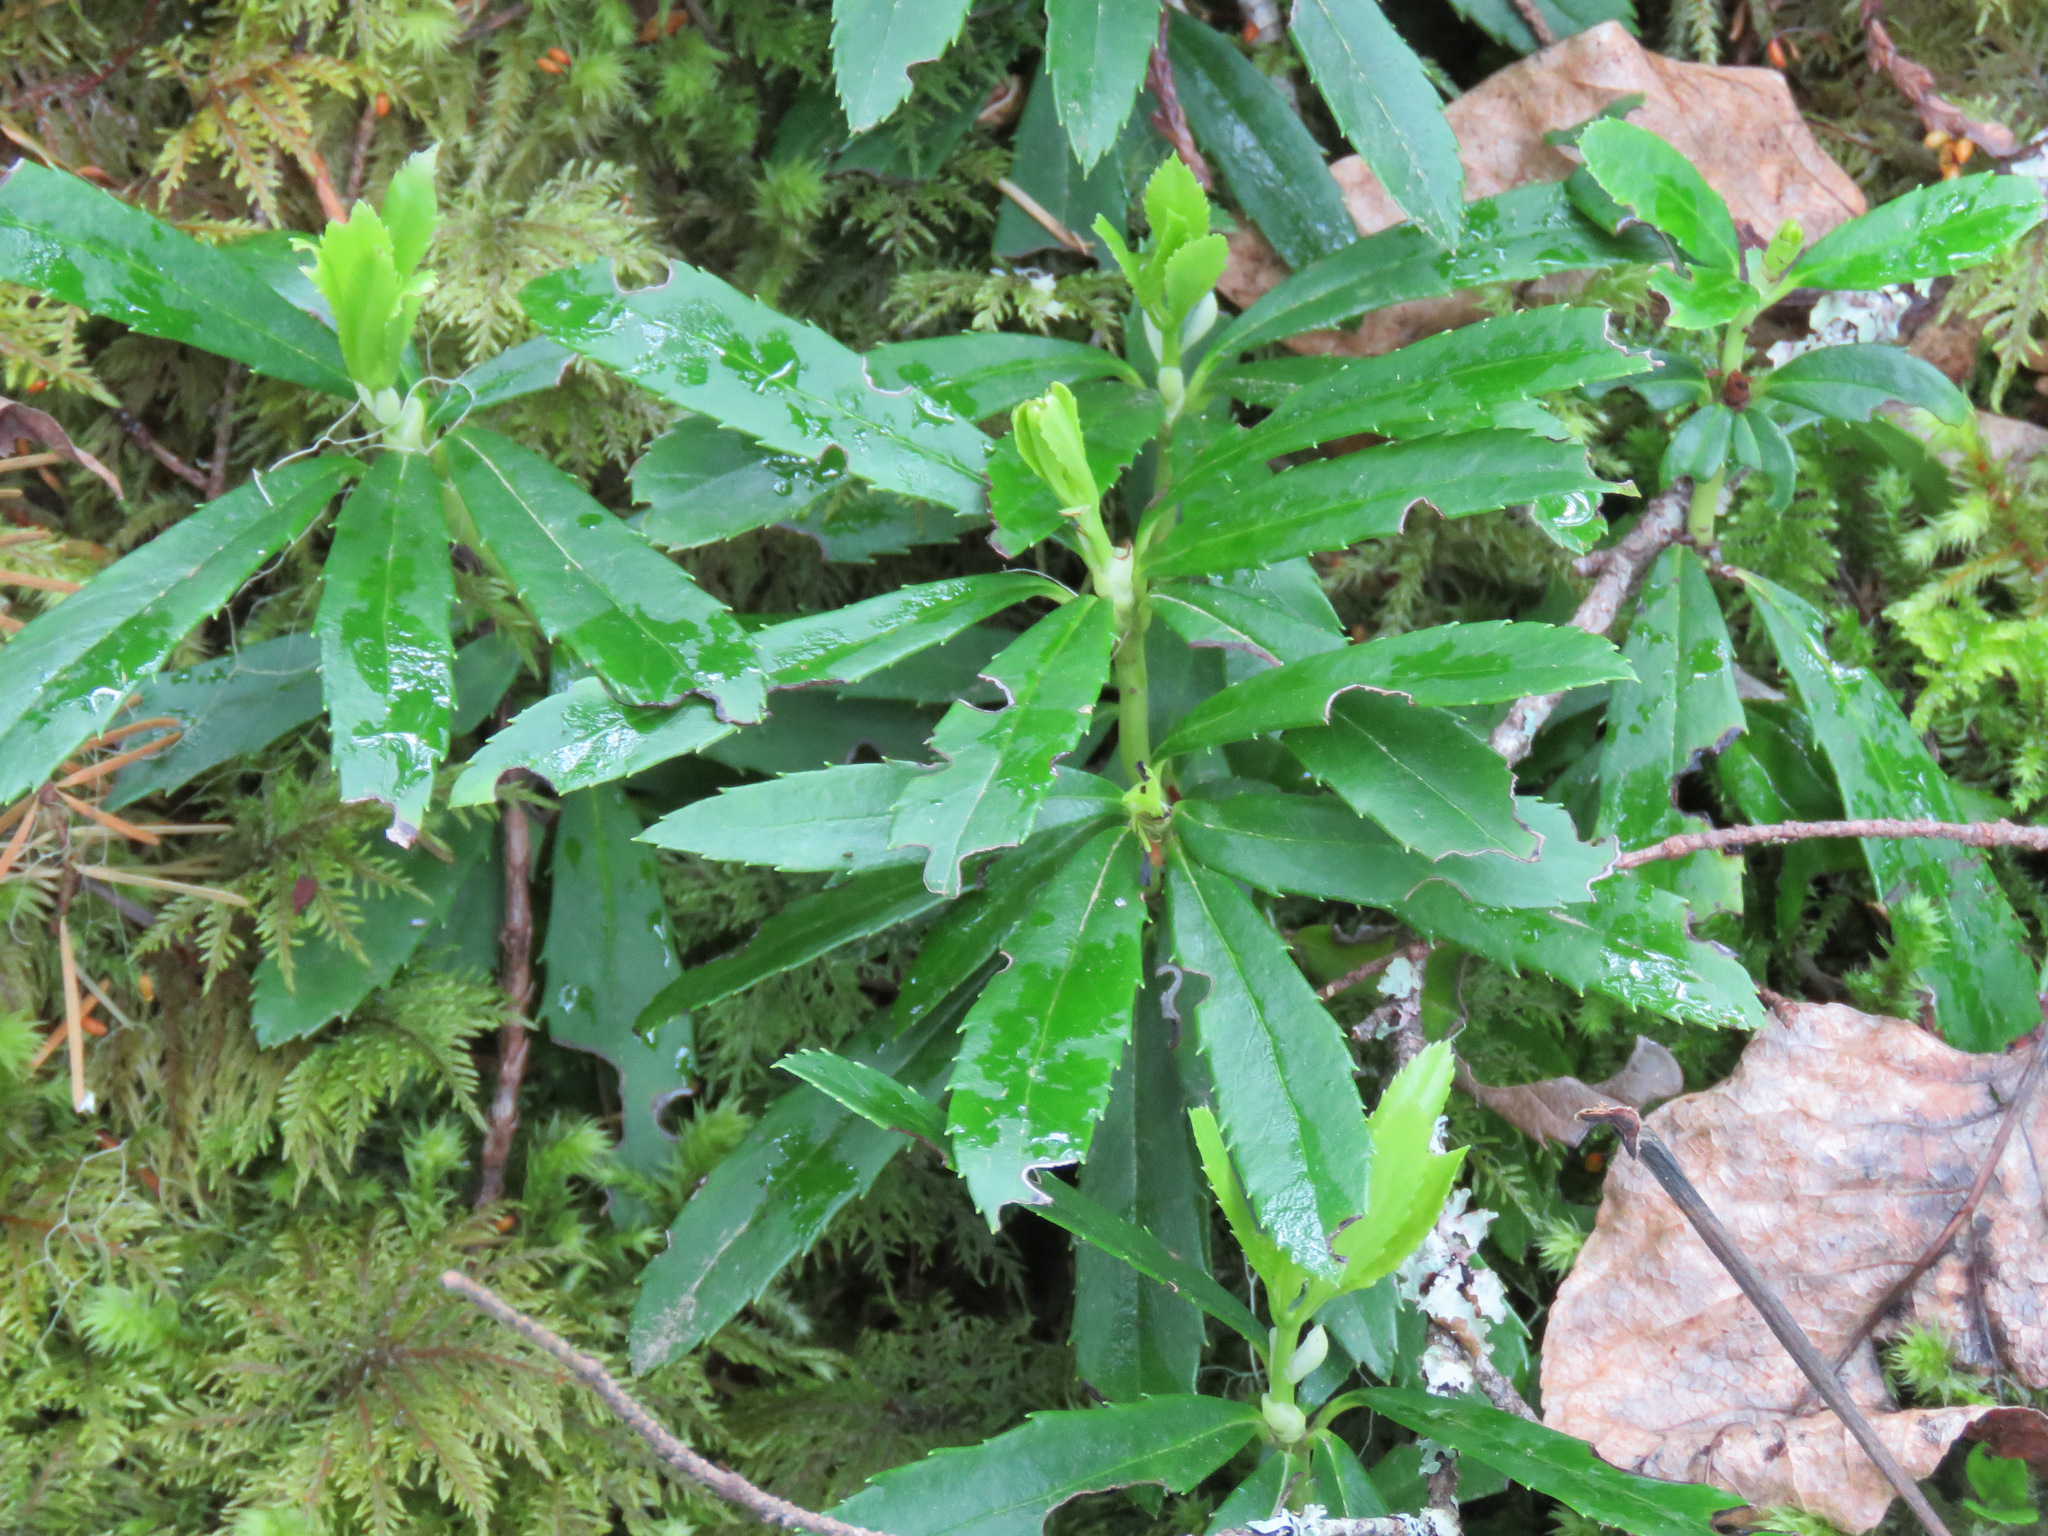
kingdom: Plantae
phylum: Tracheophyta
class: Magnoliopsida
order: Ericales
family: Ericaceae
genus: Chimaphila
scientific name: Chimaphila umbellata
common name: Pipsissewa
